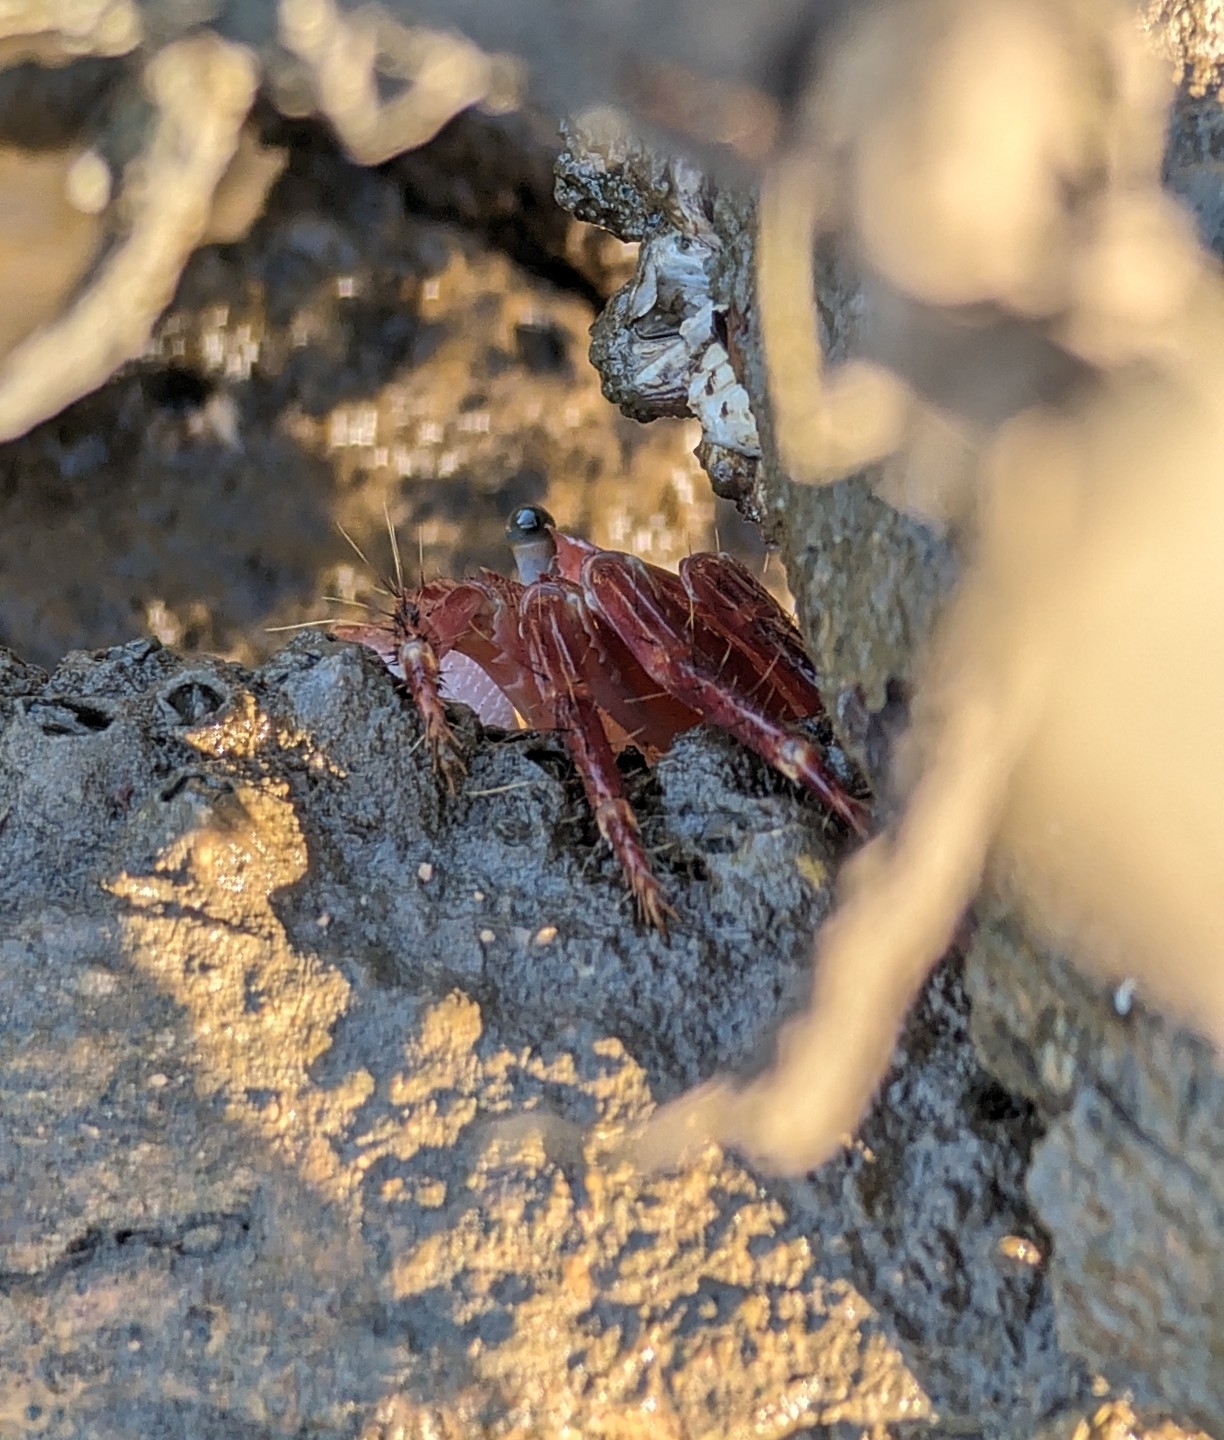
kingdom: Animalia
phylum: Arthropoda
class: Malacostraca
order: Decapoda
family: Grapsidae
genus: Metopograpsus
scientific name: Metopograpsus latifrons
